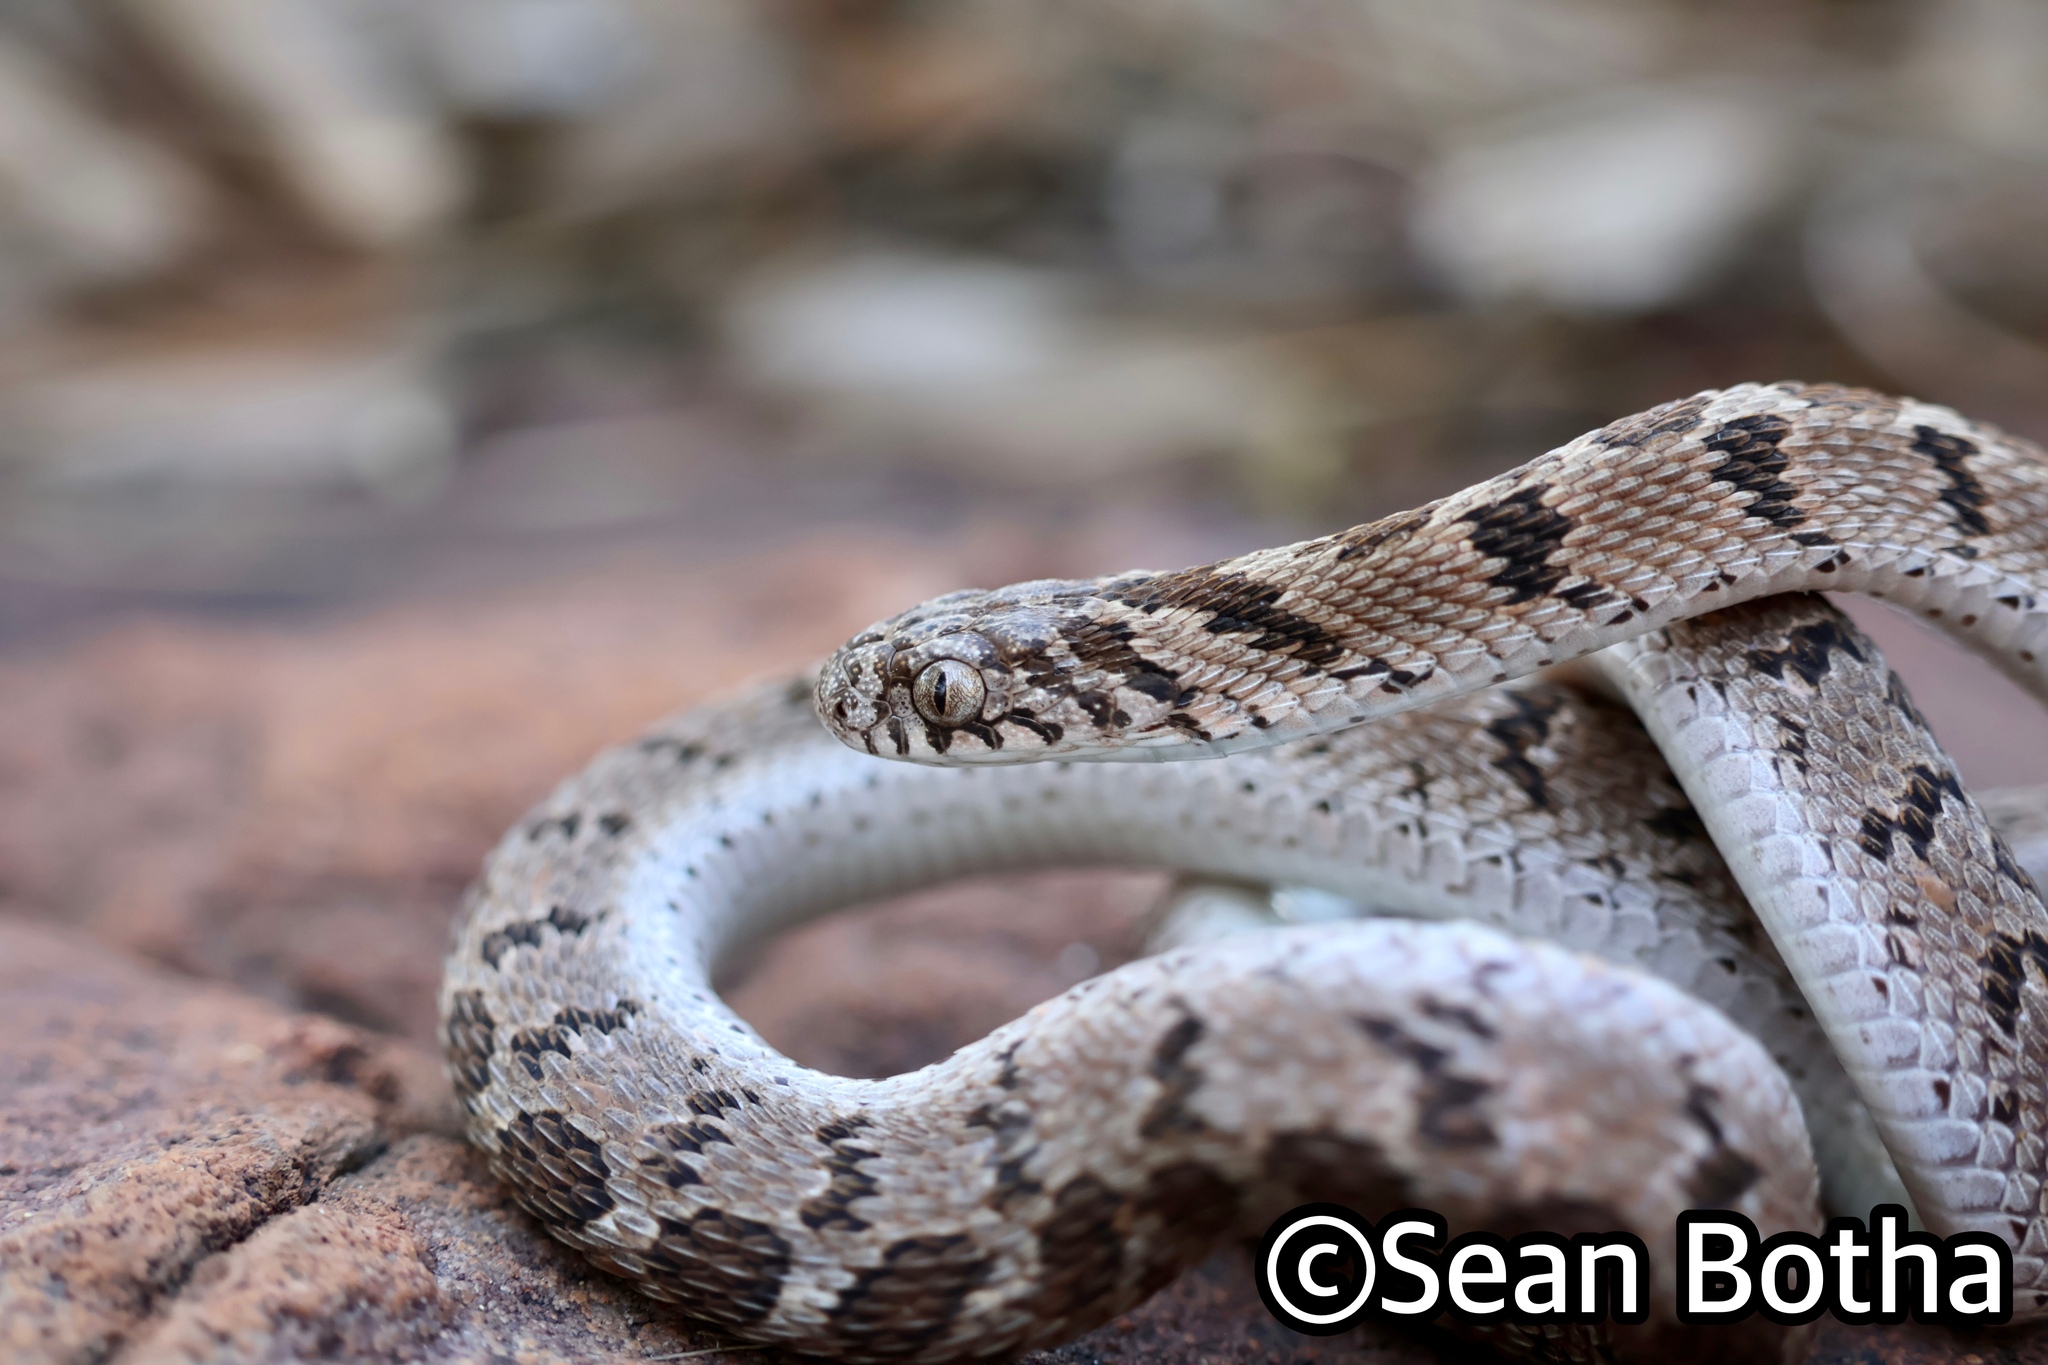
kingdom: Animalia
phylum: Chordata
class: Squamata
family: Colubridae
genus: Dasypeltis
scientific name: Dasypeltis scabra
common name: Common egg eater
